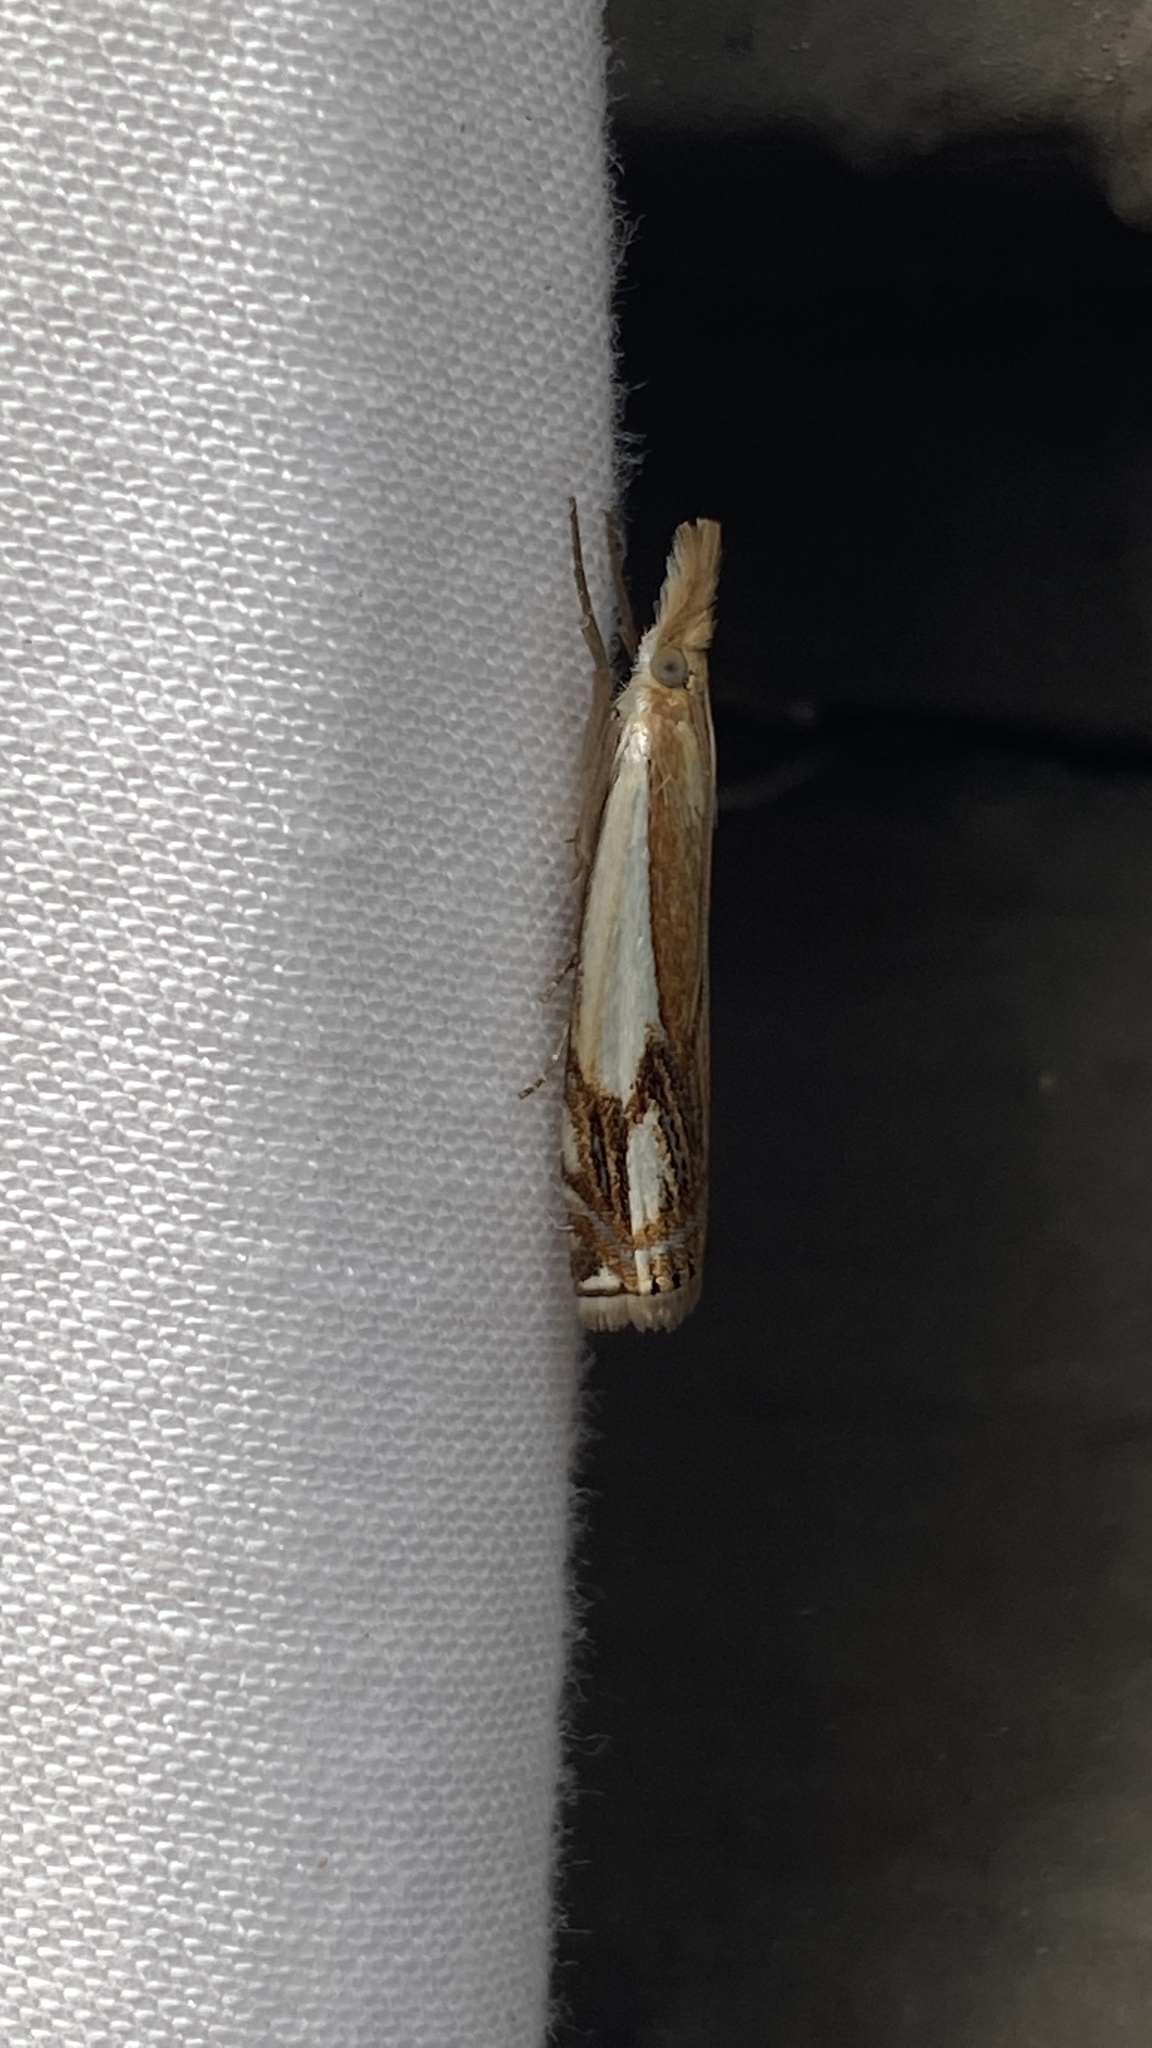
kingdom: Animalia
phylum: Arthropoda
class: Insecta
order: Lepidoptera
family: Crambidae
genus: Crambus
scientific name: Crambus agitatellus
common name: Double-banded grass-veneer
